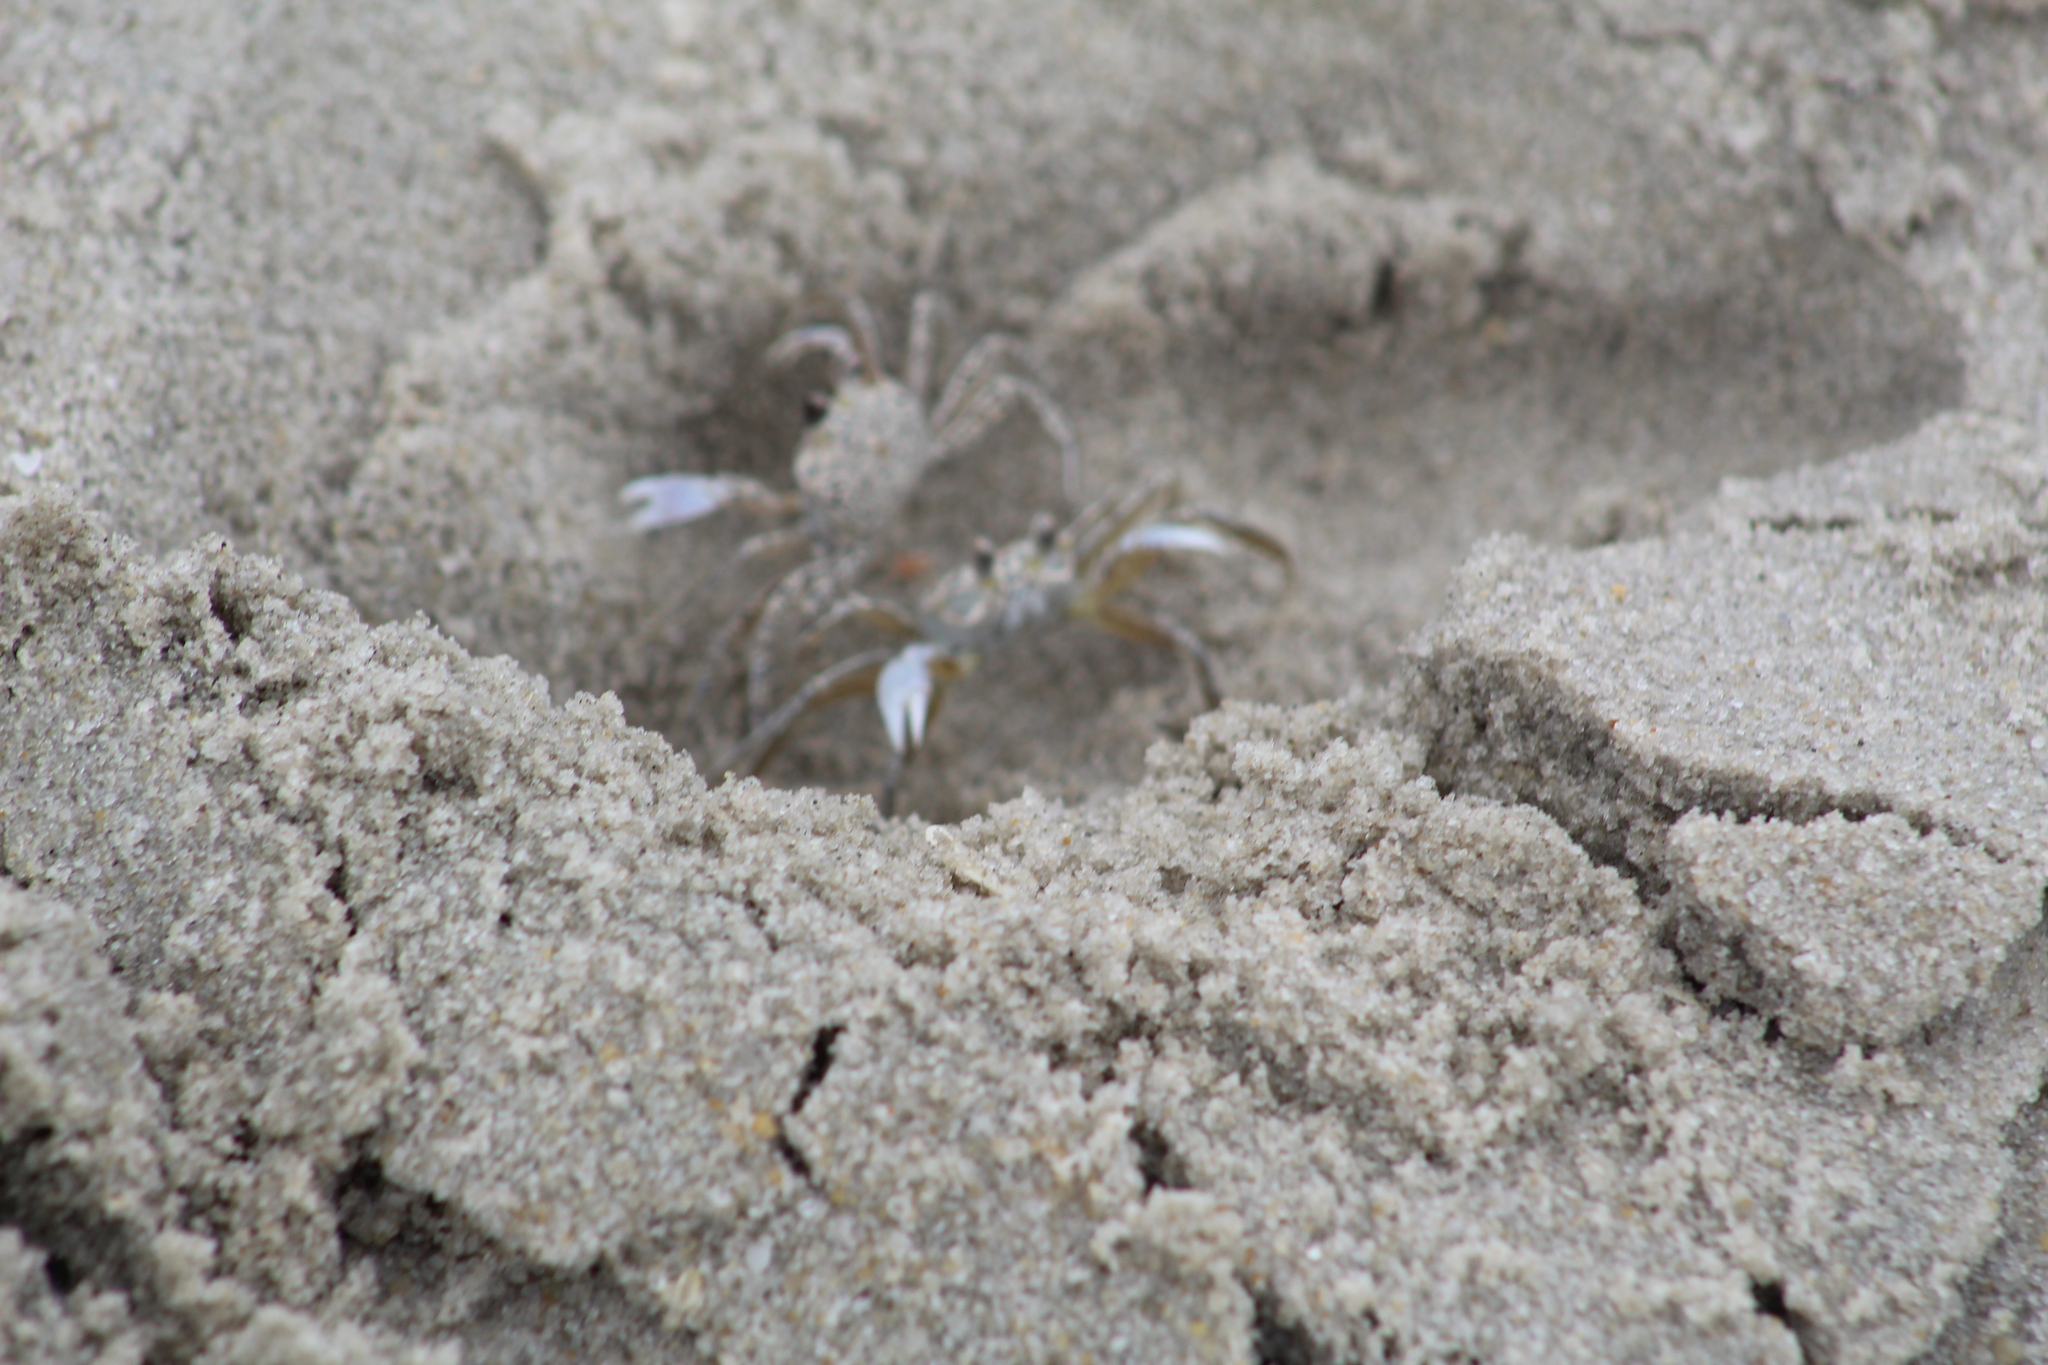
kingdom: Animalia
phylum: Arthropoda
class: Malacostraca
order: Decapoda
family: Ocypodidae
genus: Ocypode
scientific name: Ocypode quadrata
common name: Ghost crab
